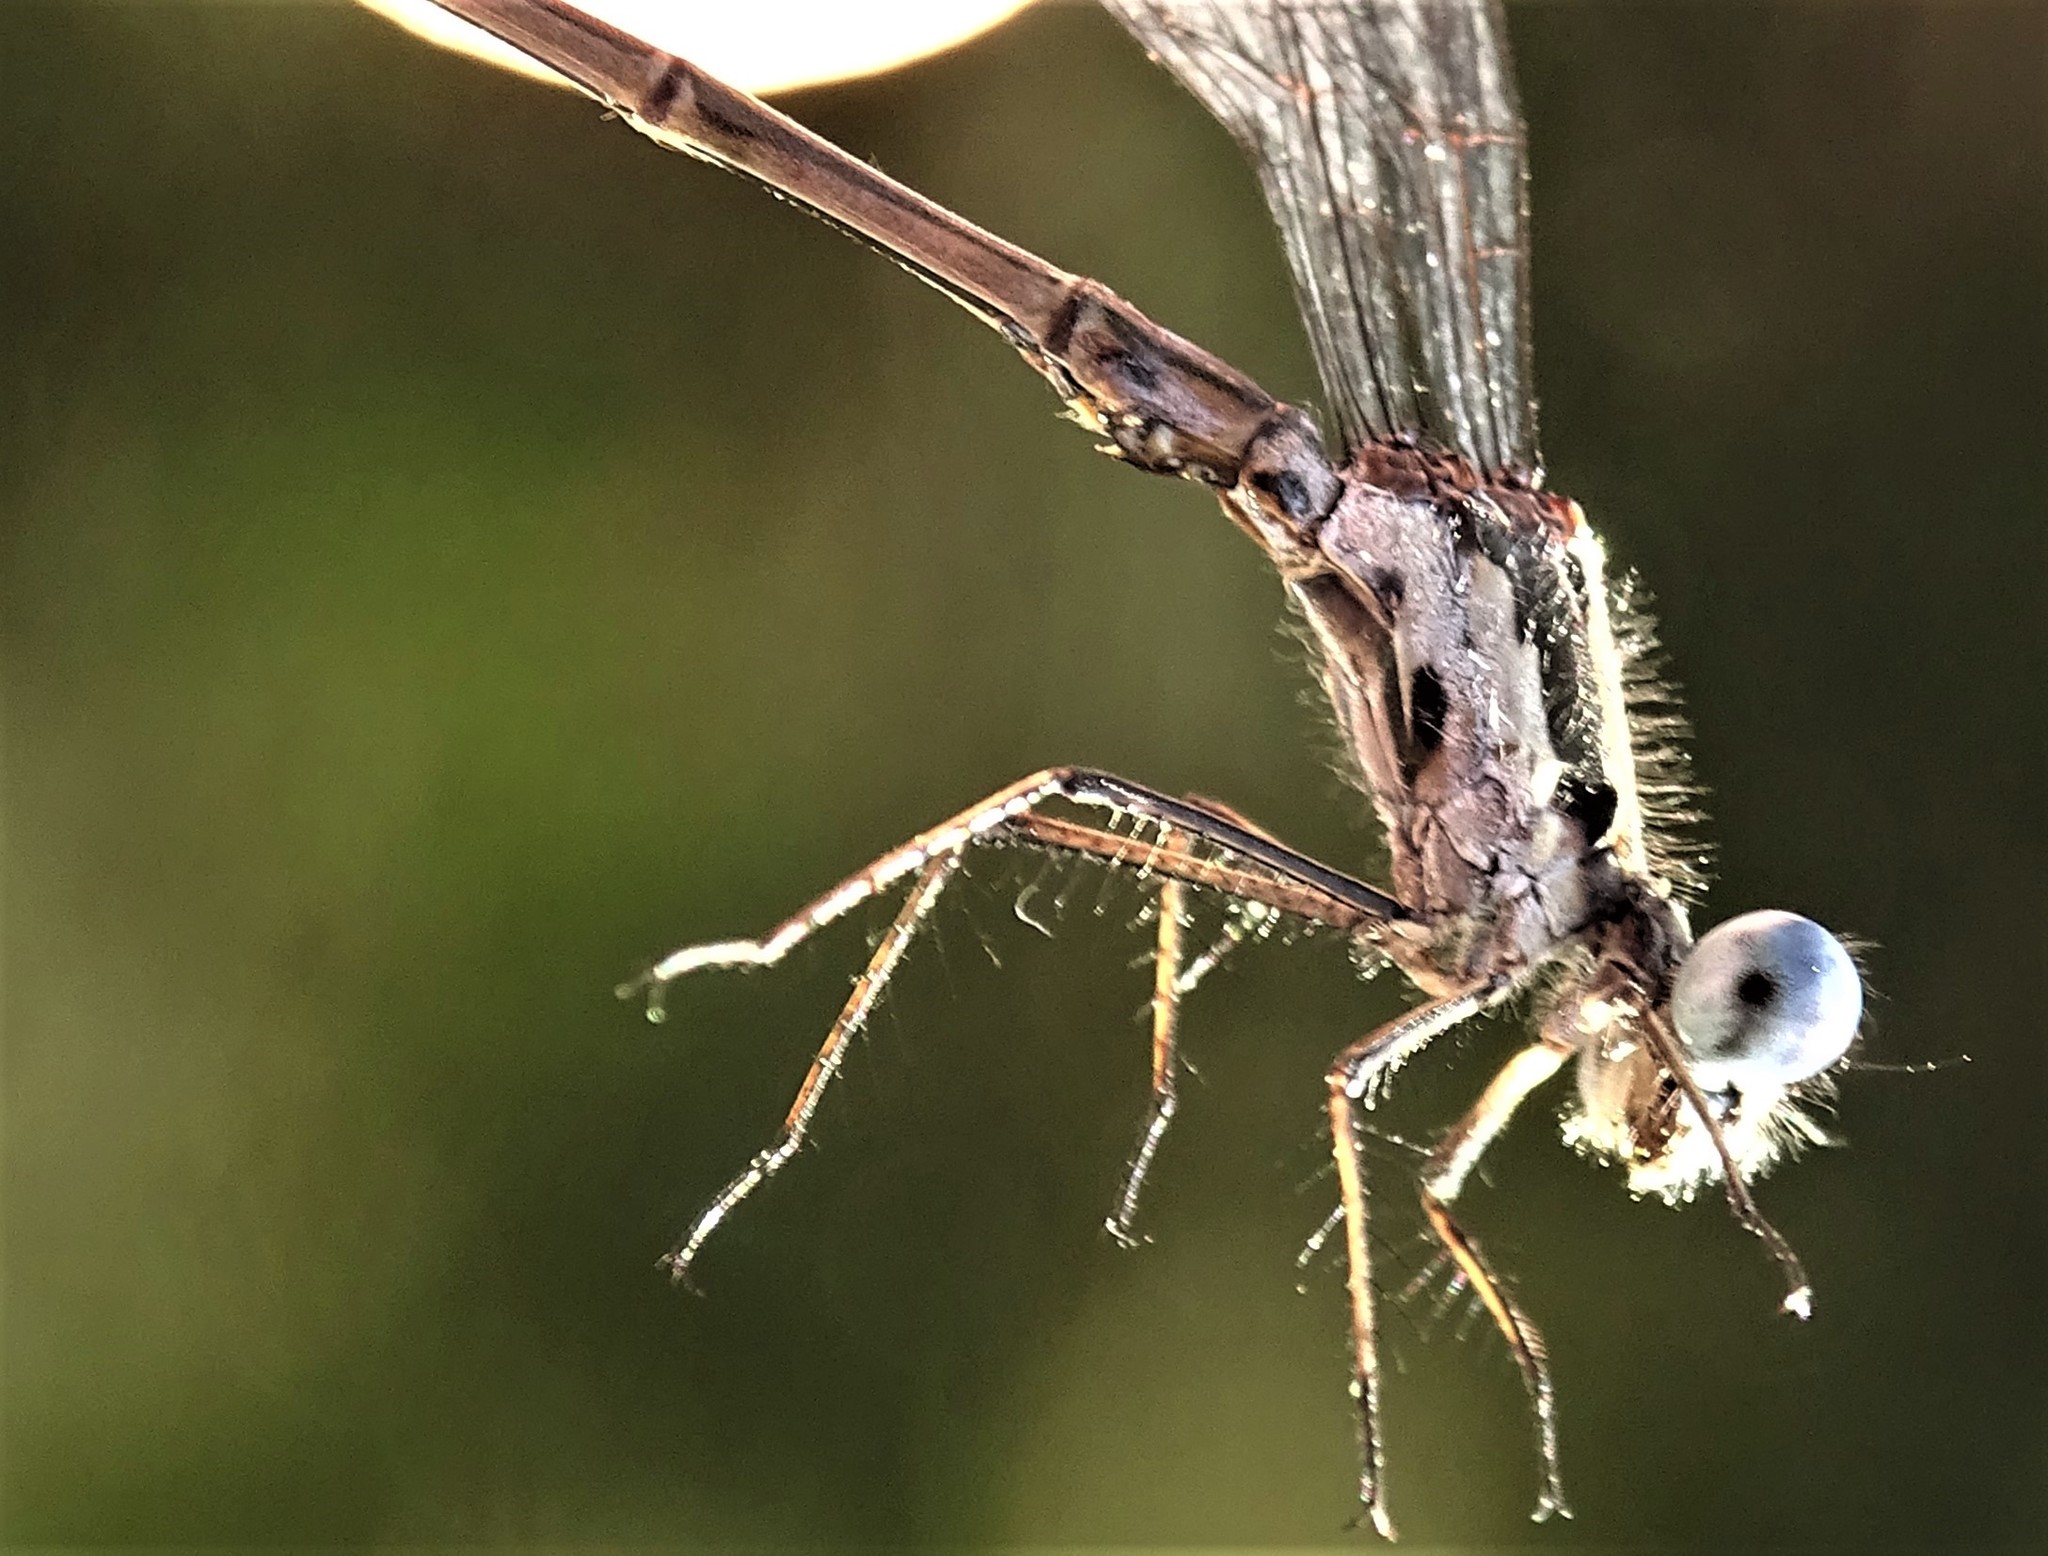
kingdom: Animalia
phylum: Arthropoda
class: Insecta
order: Odonata
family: Lestidae
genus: Lestes
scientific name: Lestes congener
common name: Spotted spreadwing
